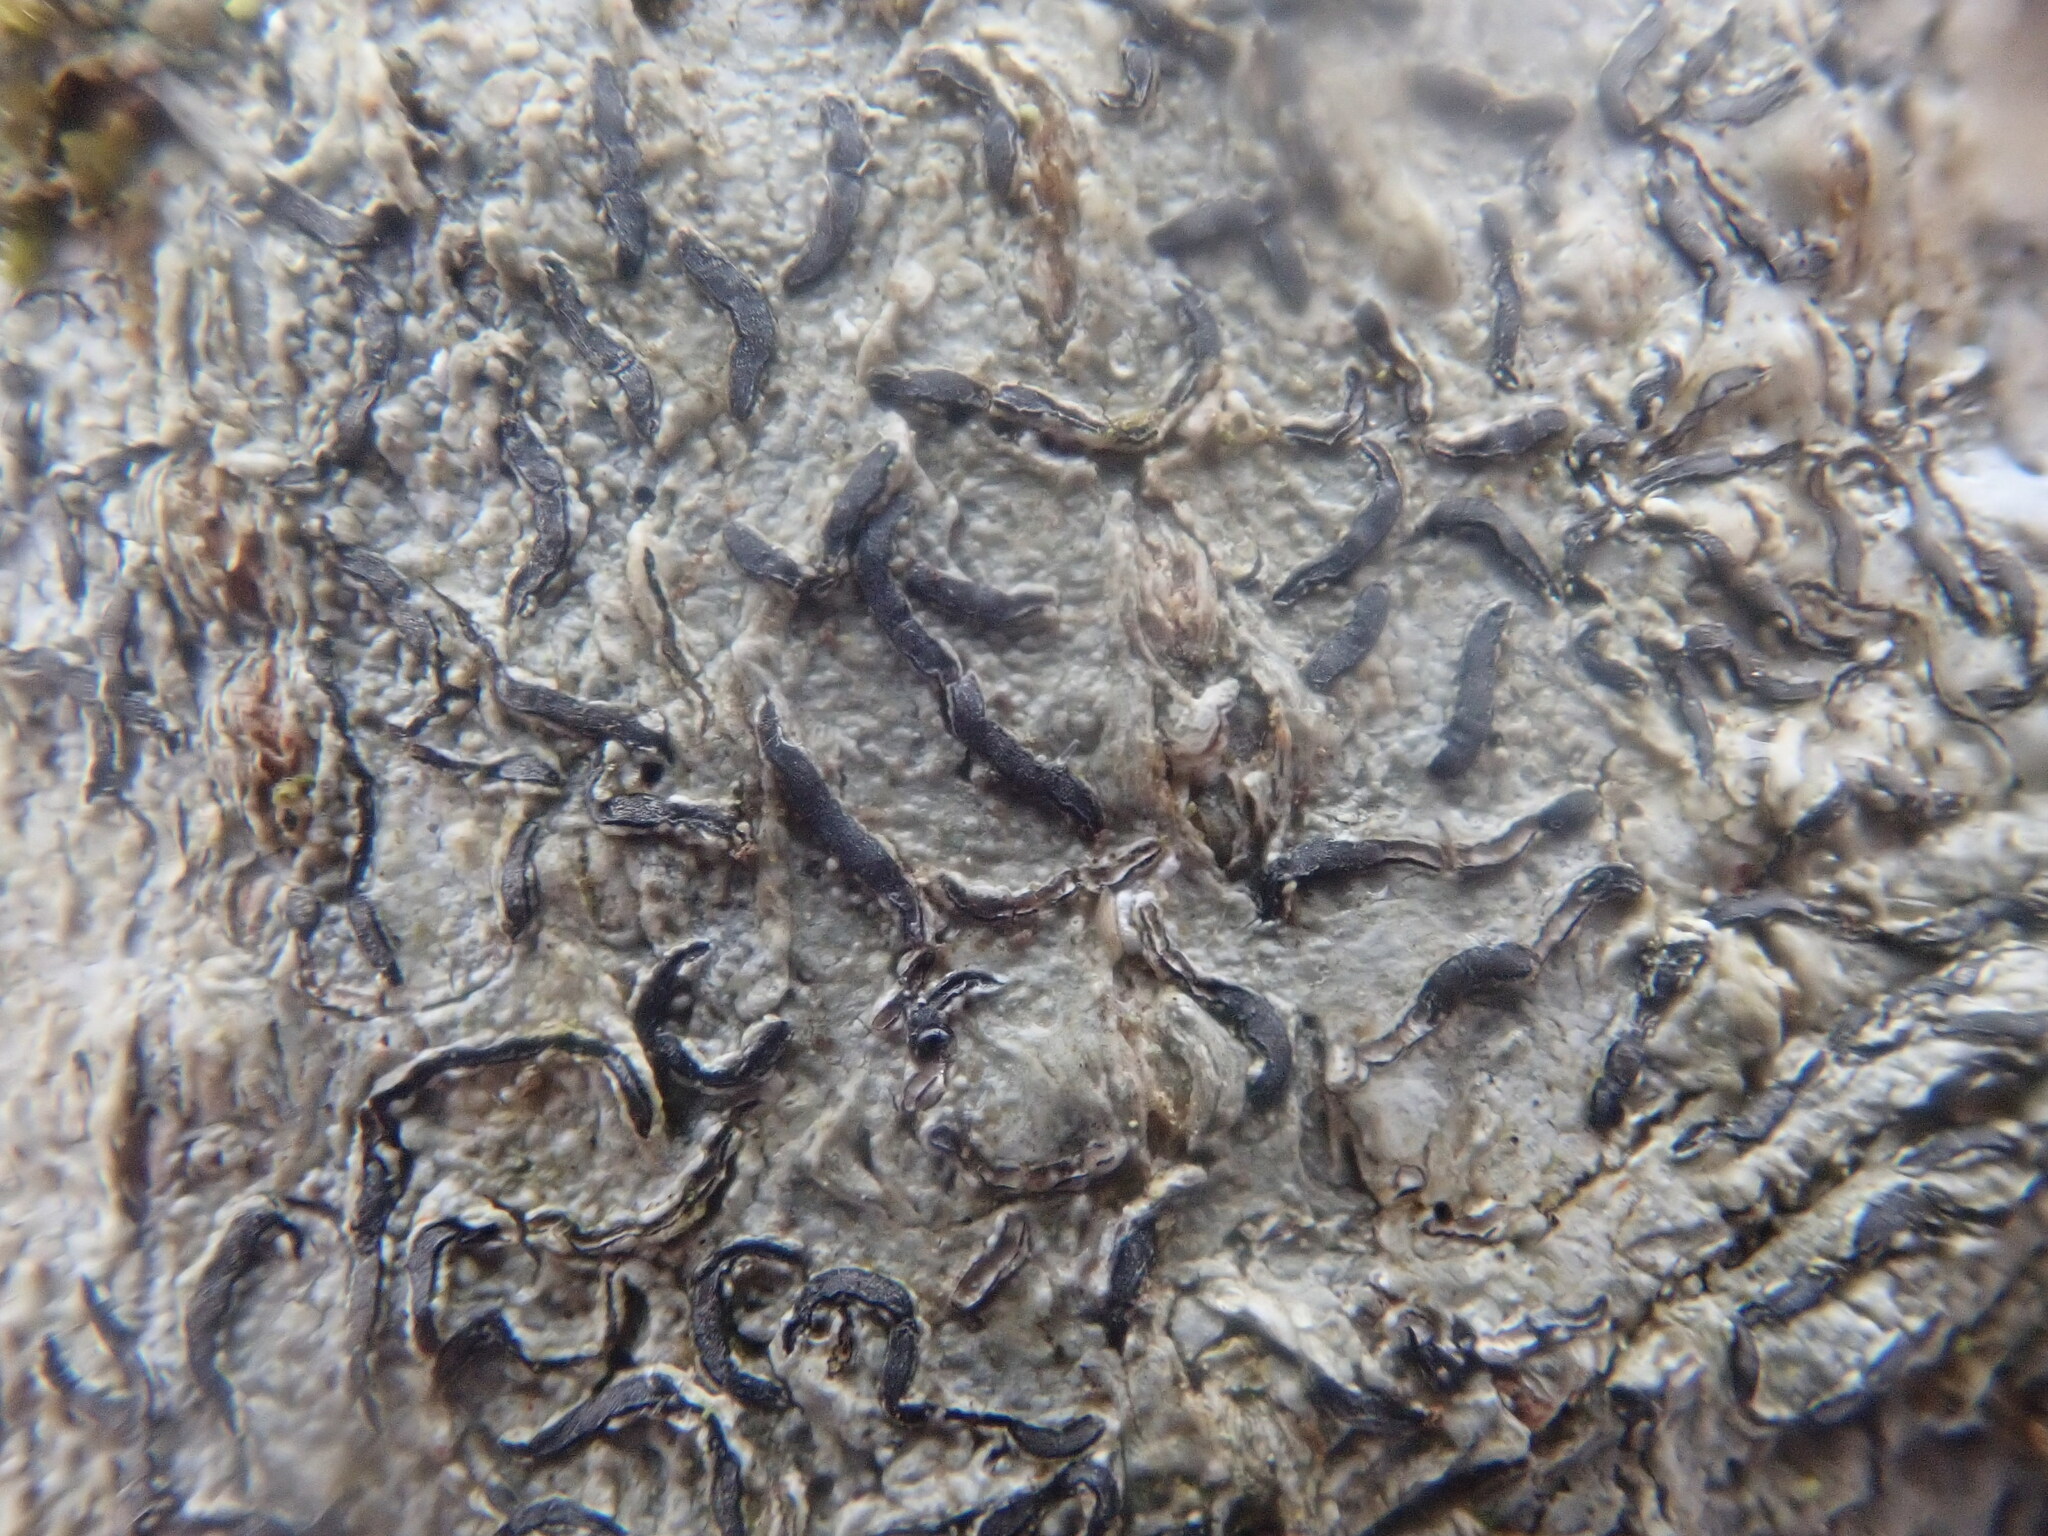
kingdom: Fungi
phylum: Ascomycota
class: Lecanoromycetes
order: Ostropales
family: Graphidaceae
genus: Graphis
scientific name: Graphis scripta
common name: Script lichen
